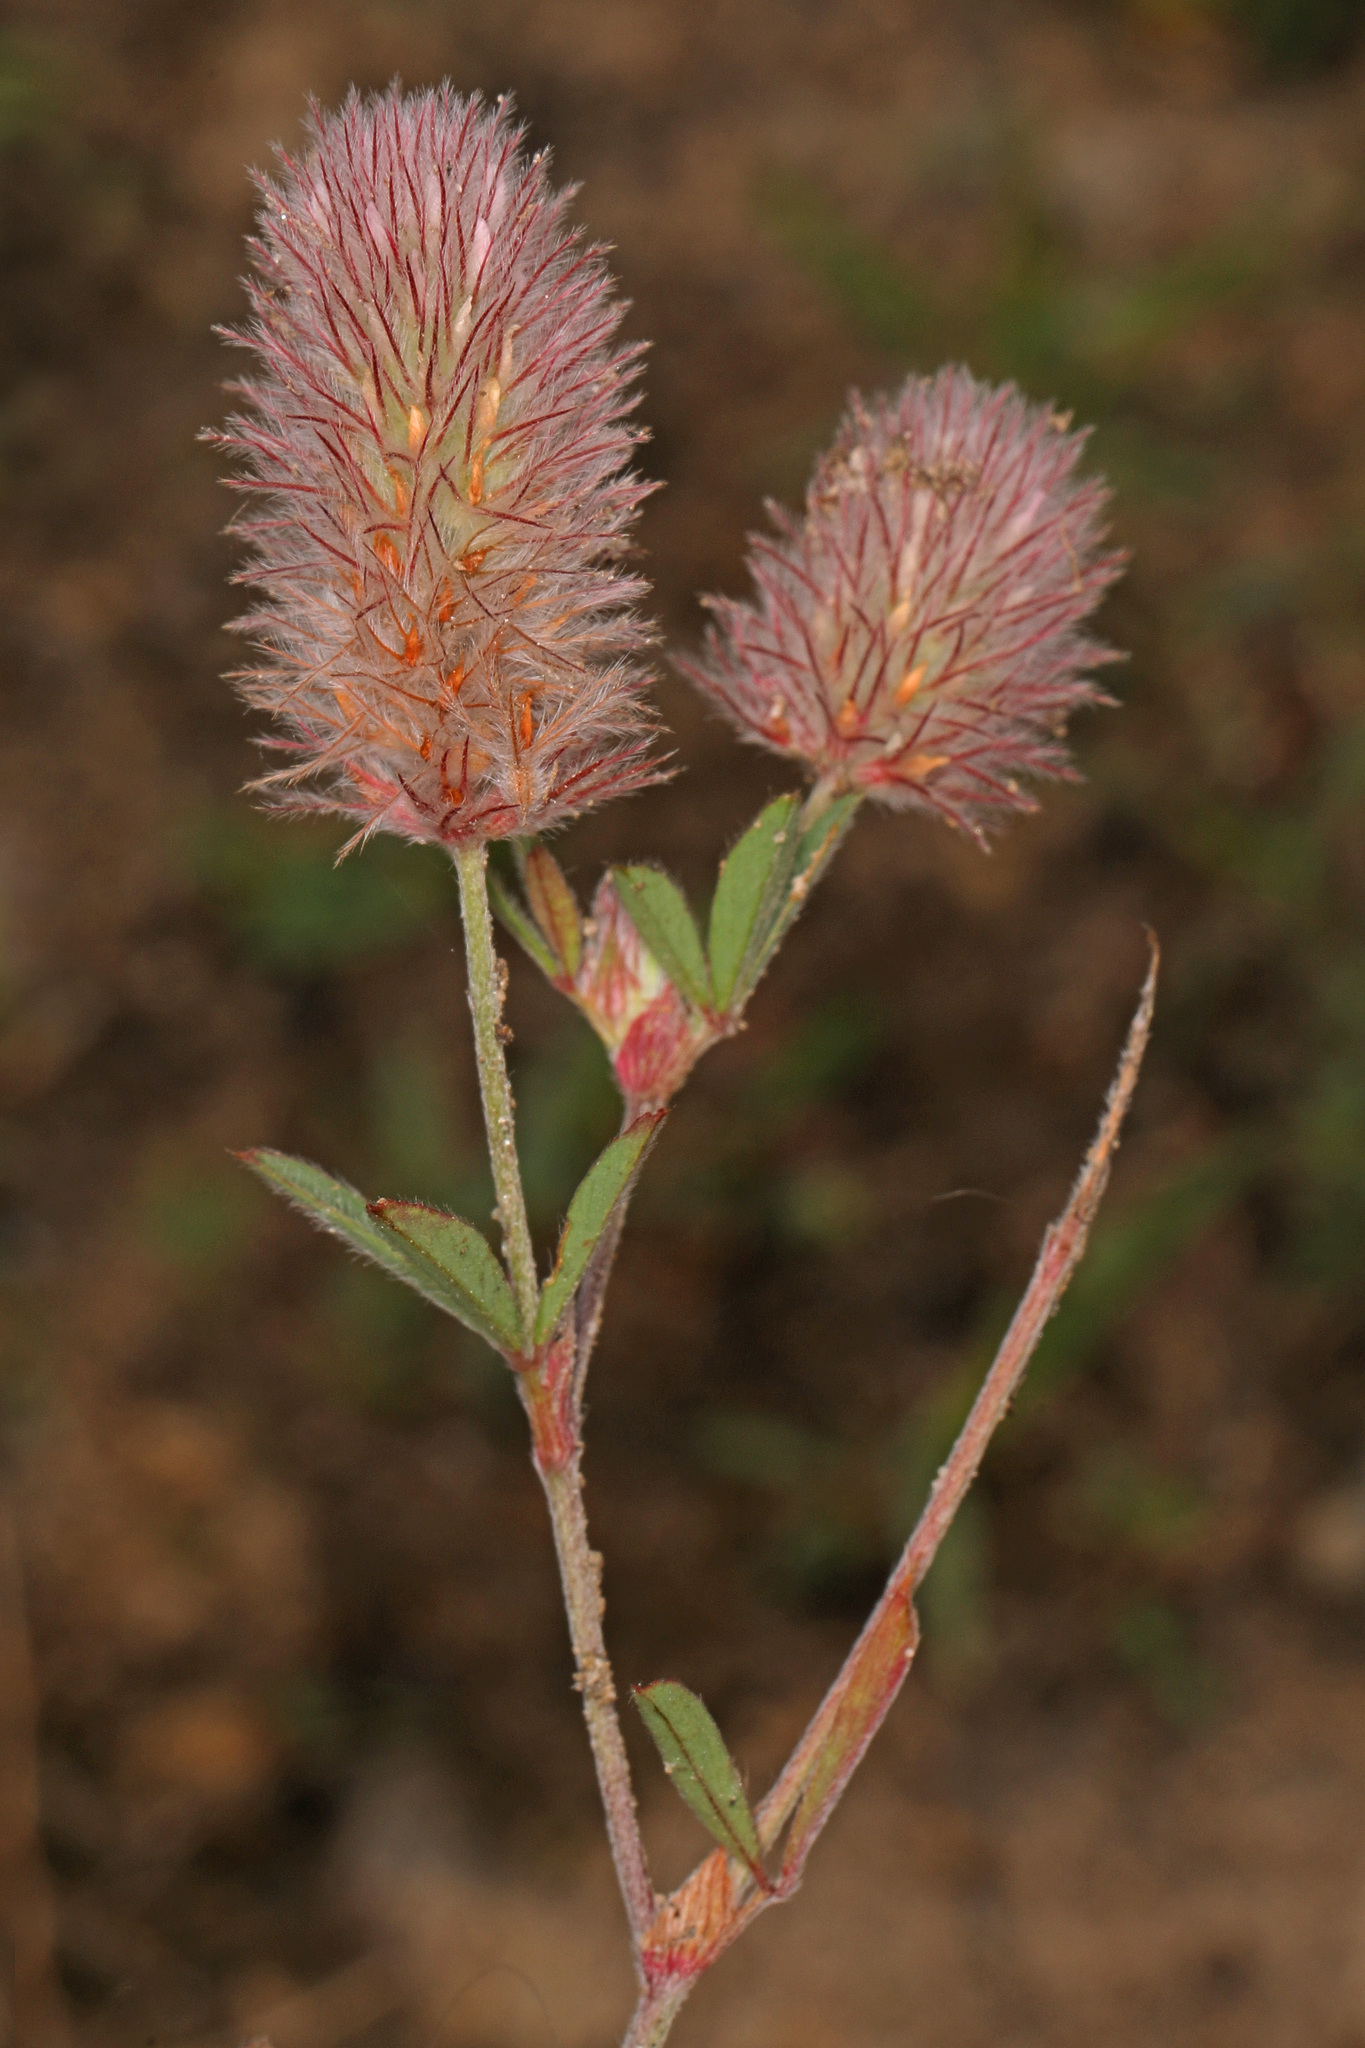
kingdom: Plantae
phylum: Tracheophyta
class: Magnoliopsida
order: Fabales
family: Fabaceae
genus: Trifolium
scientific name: Trifolium arvense
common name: Hare's-foot clover
